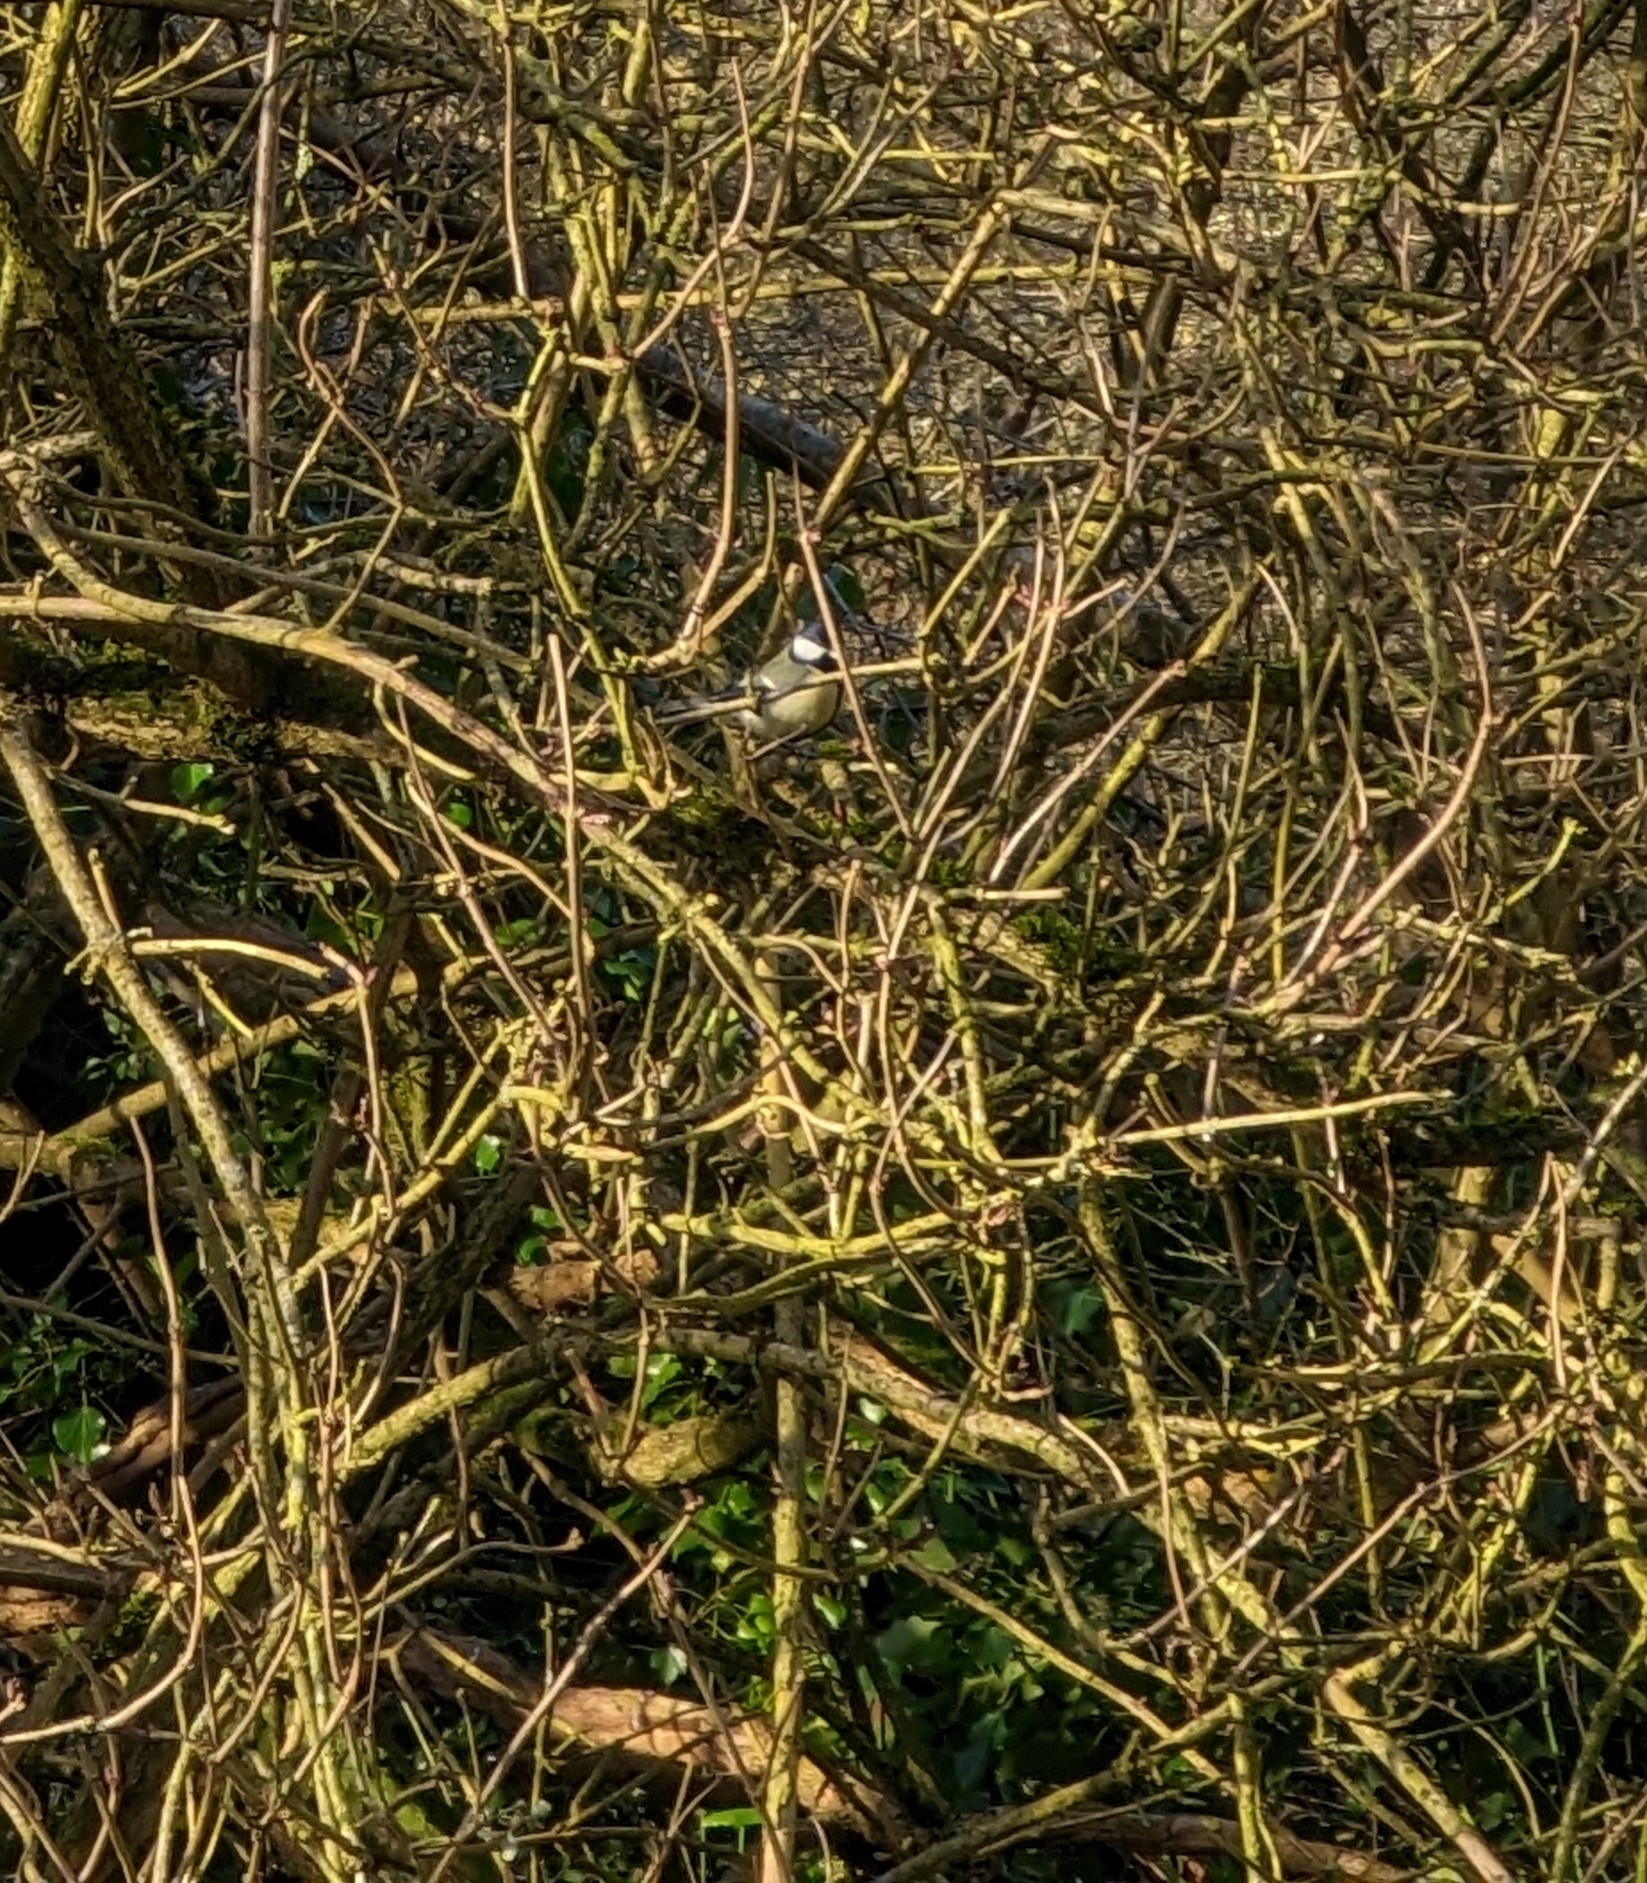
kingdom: Animalia
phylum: Chordata
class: Aves
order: Passeriformes
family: Paridae
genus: Parus
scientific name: Parus major
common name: Great tit
